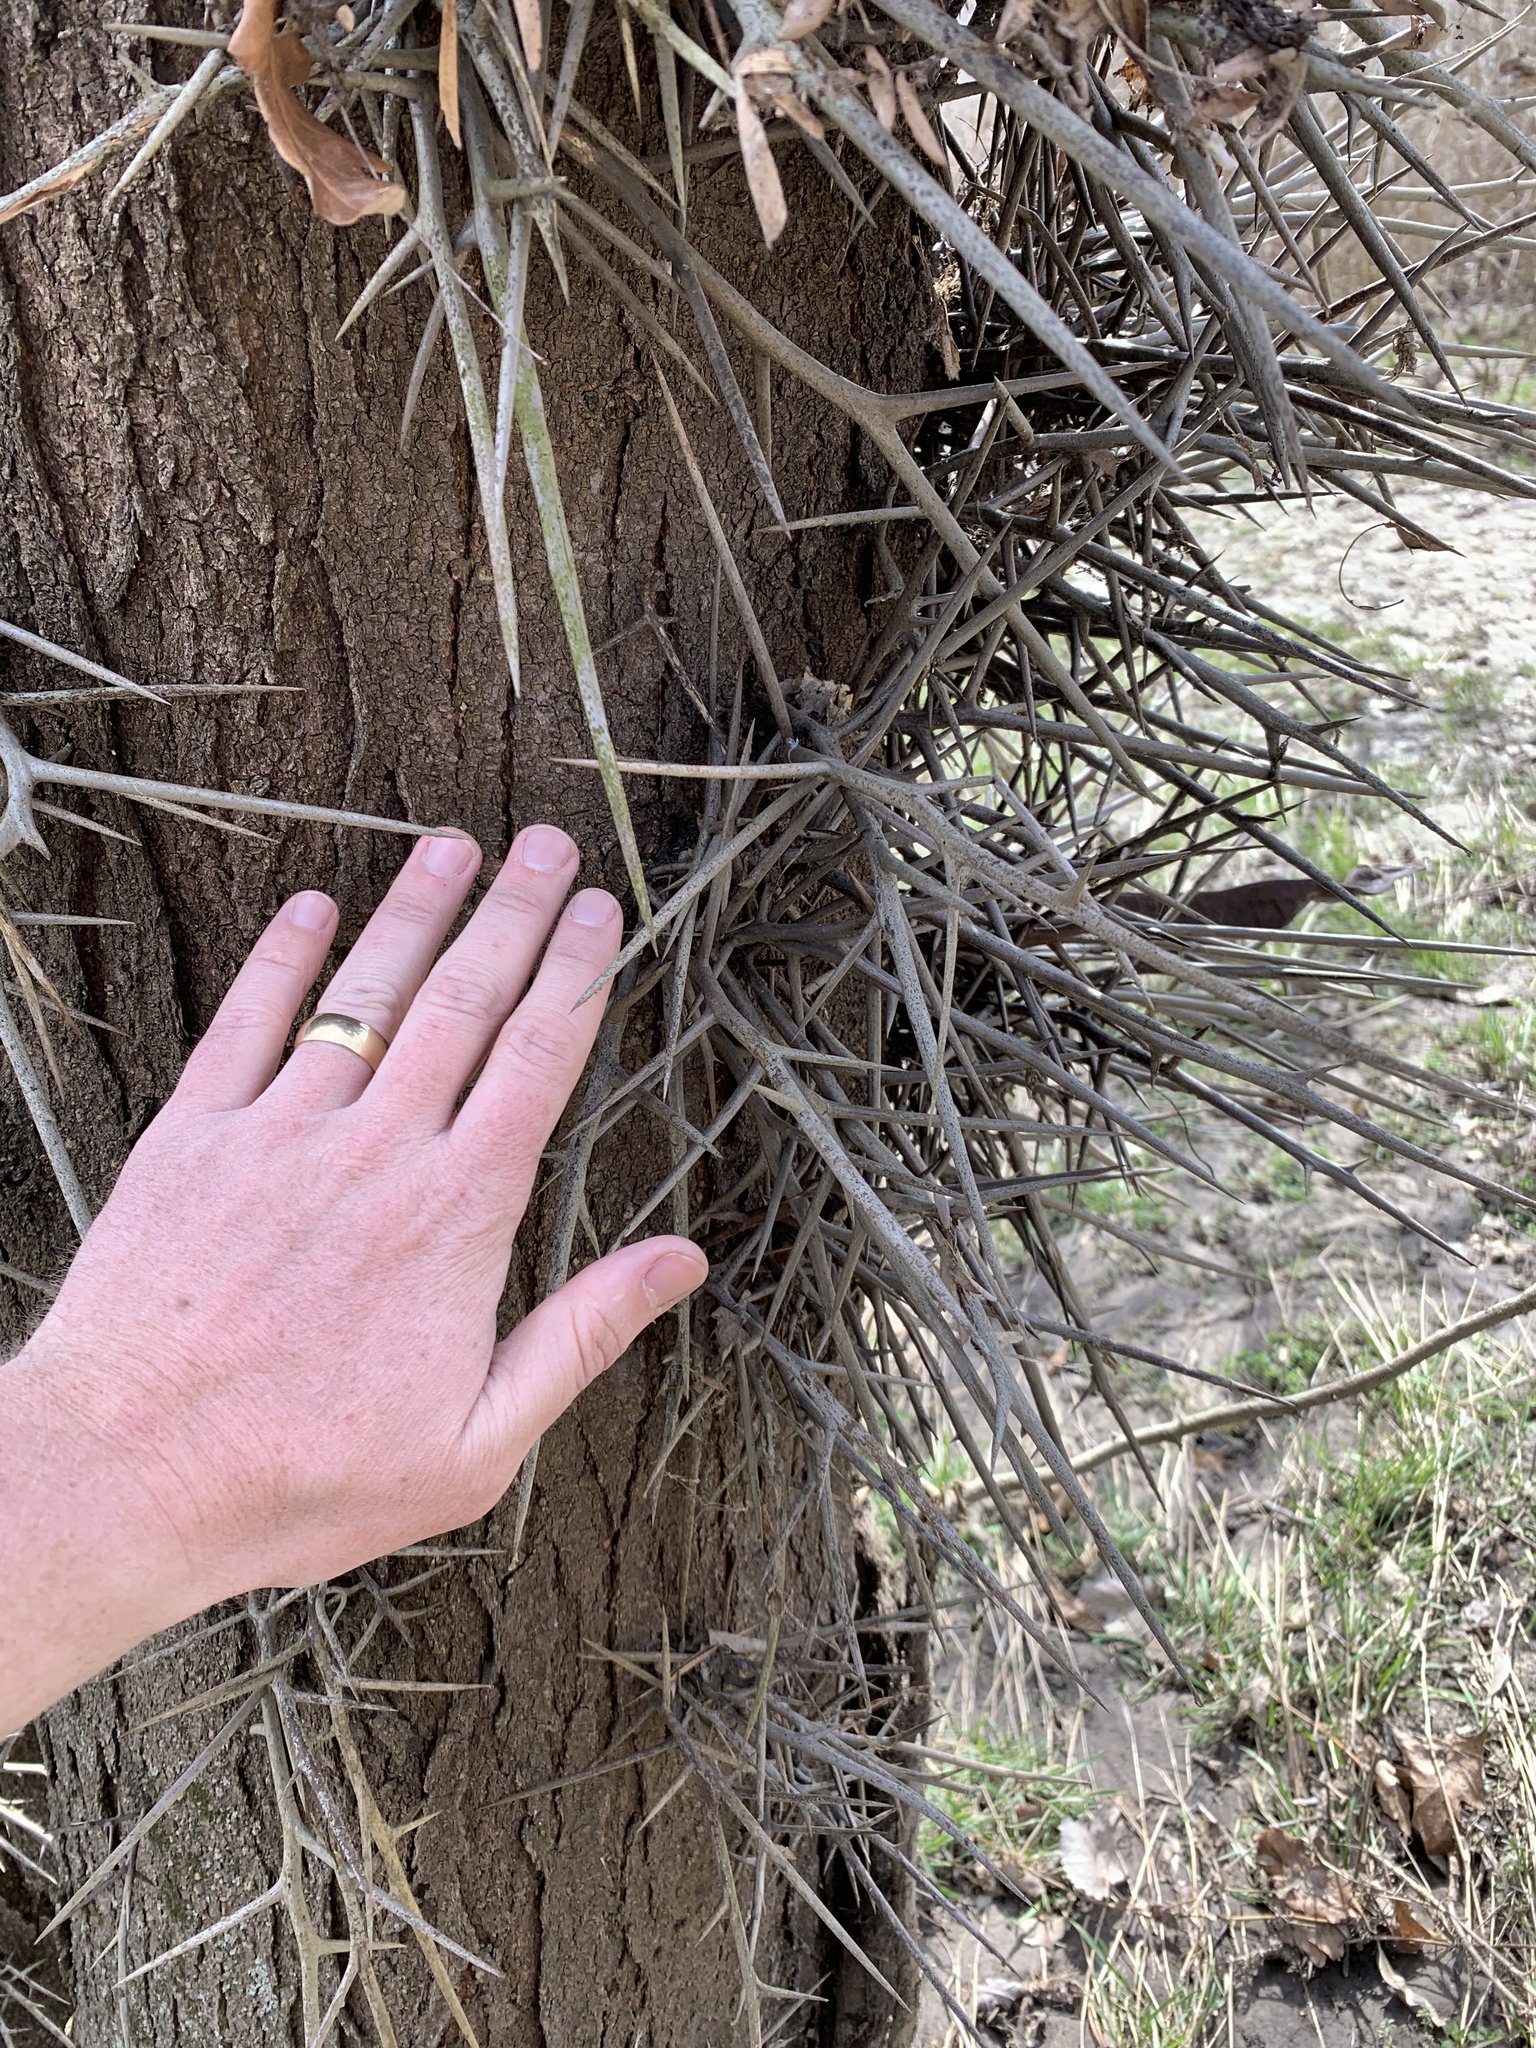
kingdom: Plantae
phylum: Tracheophyta
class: Magnoliopsida
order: Fabales
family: Fabaceae
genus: Gleditsia
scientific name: Gleditsia triacanthos
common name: Common honeylocust
